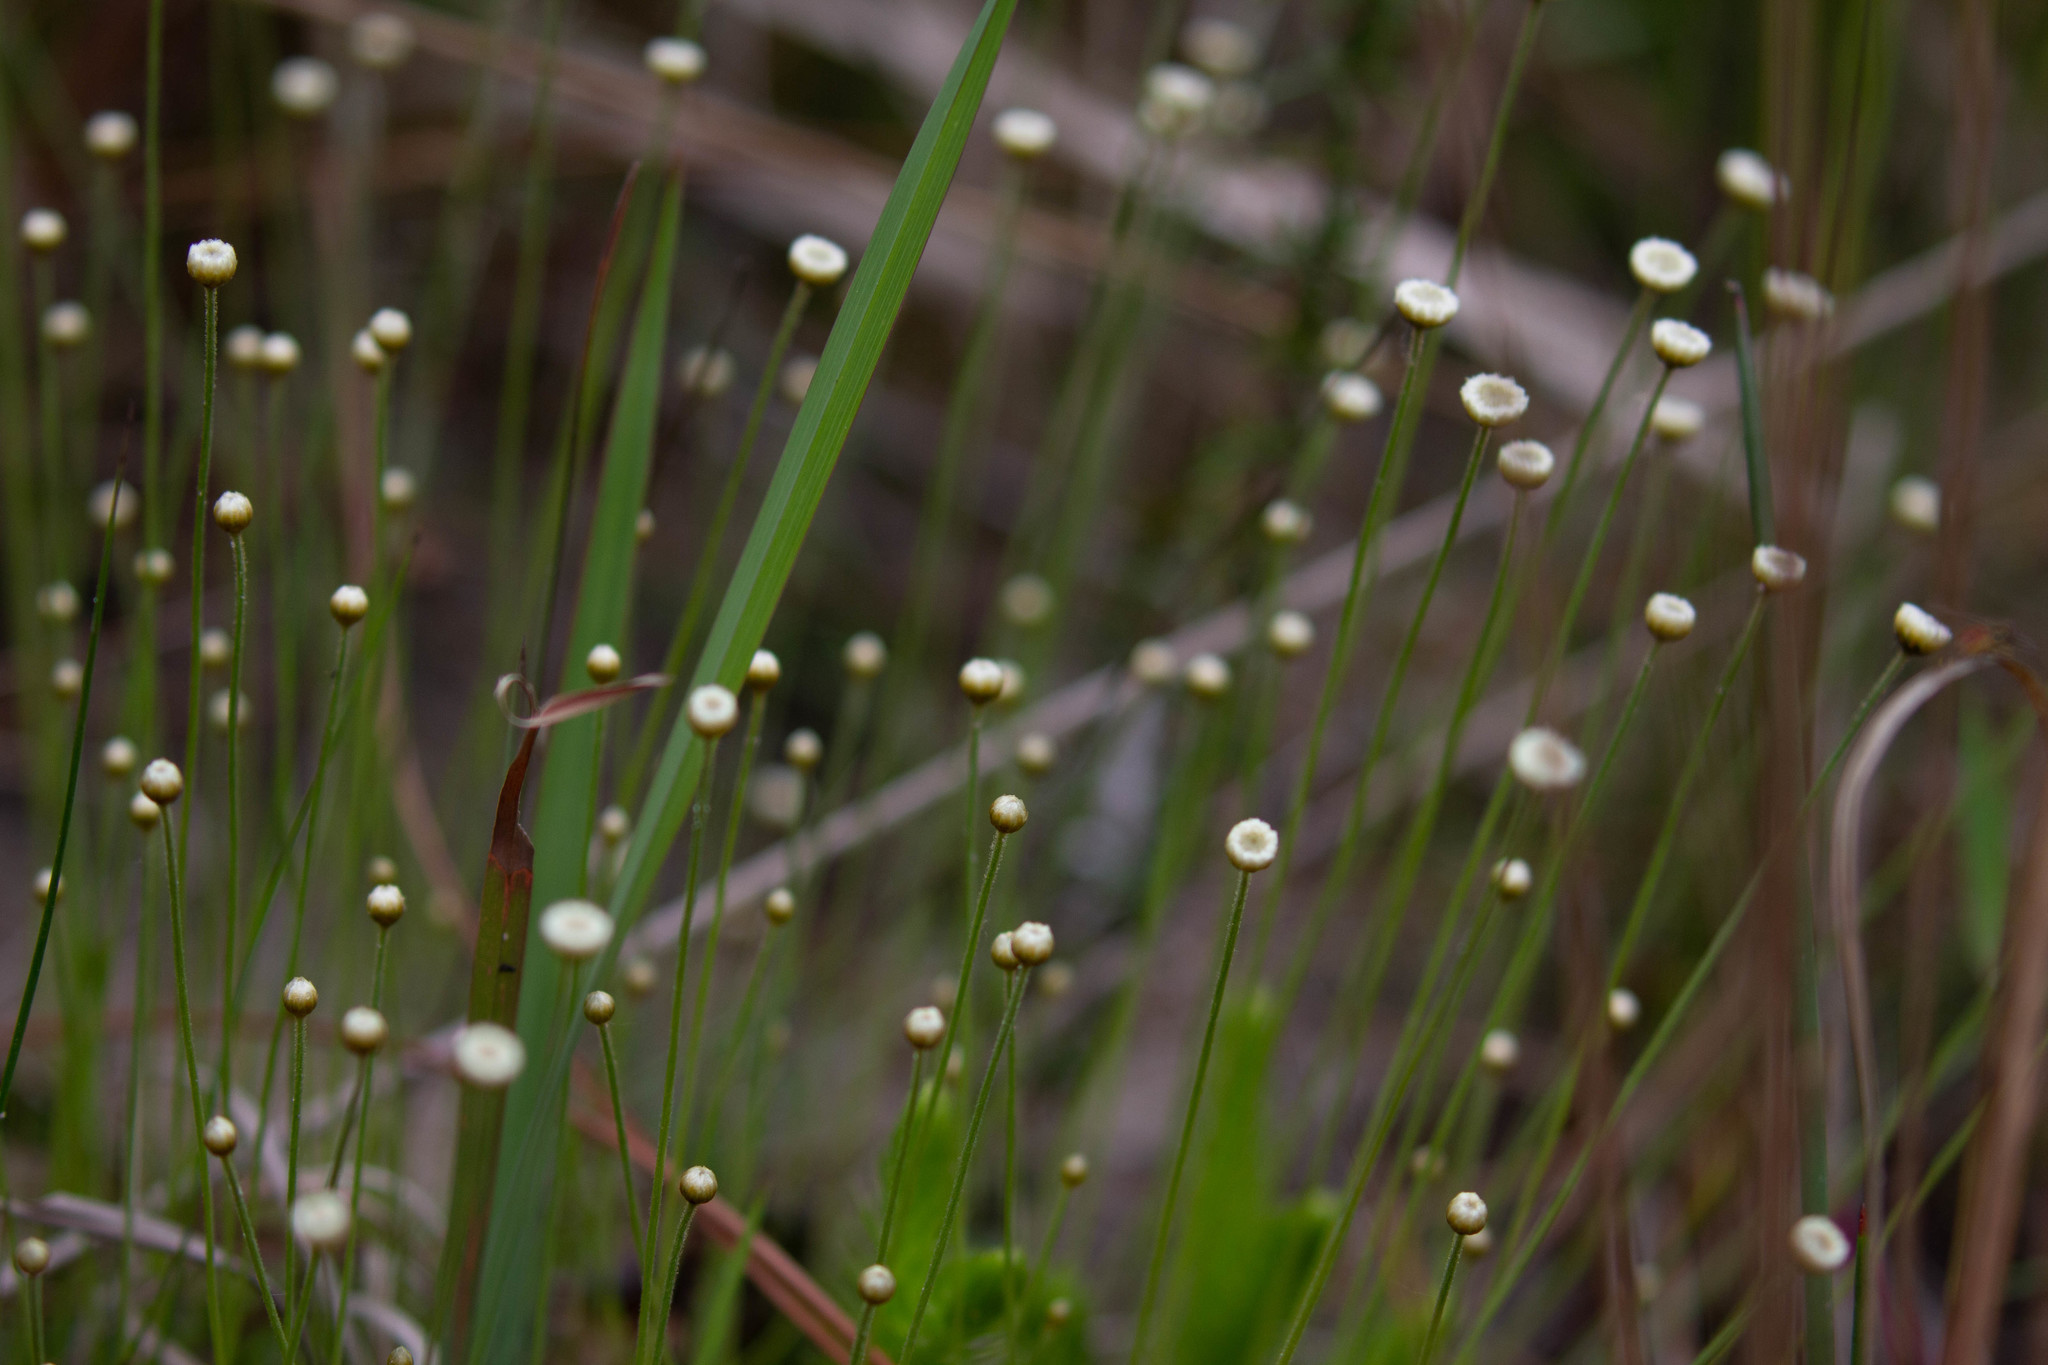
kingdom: Plantae
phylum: Tracheophyta
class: Liliopsida
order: Poales
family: Eriocaulaceae
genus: Syngonanthus
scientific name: Syngonanthus flavidulus
